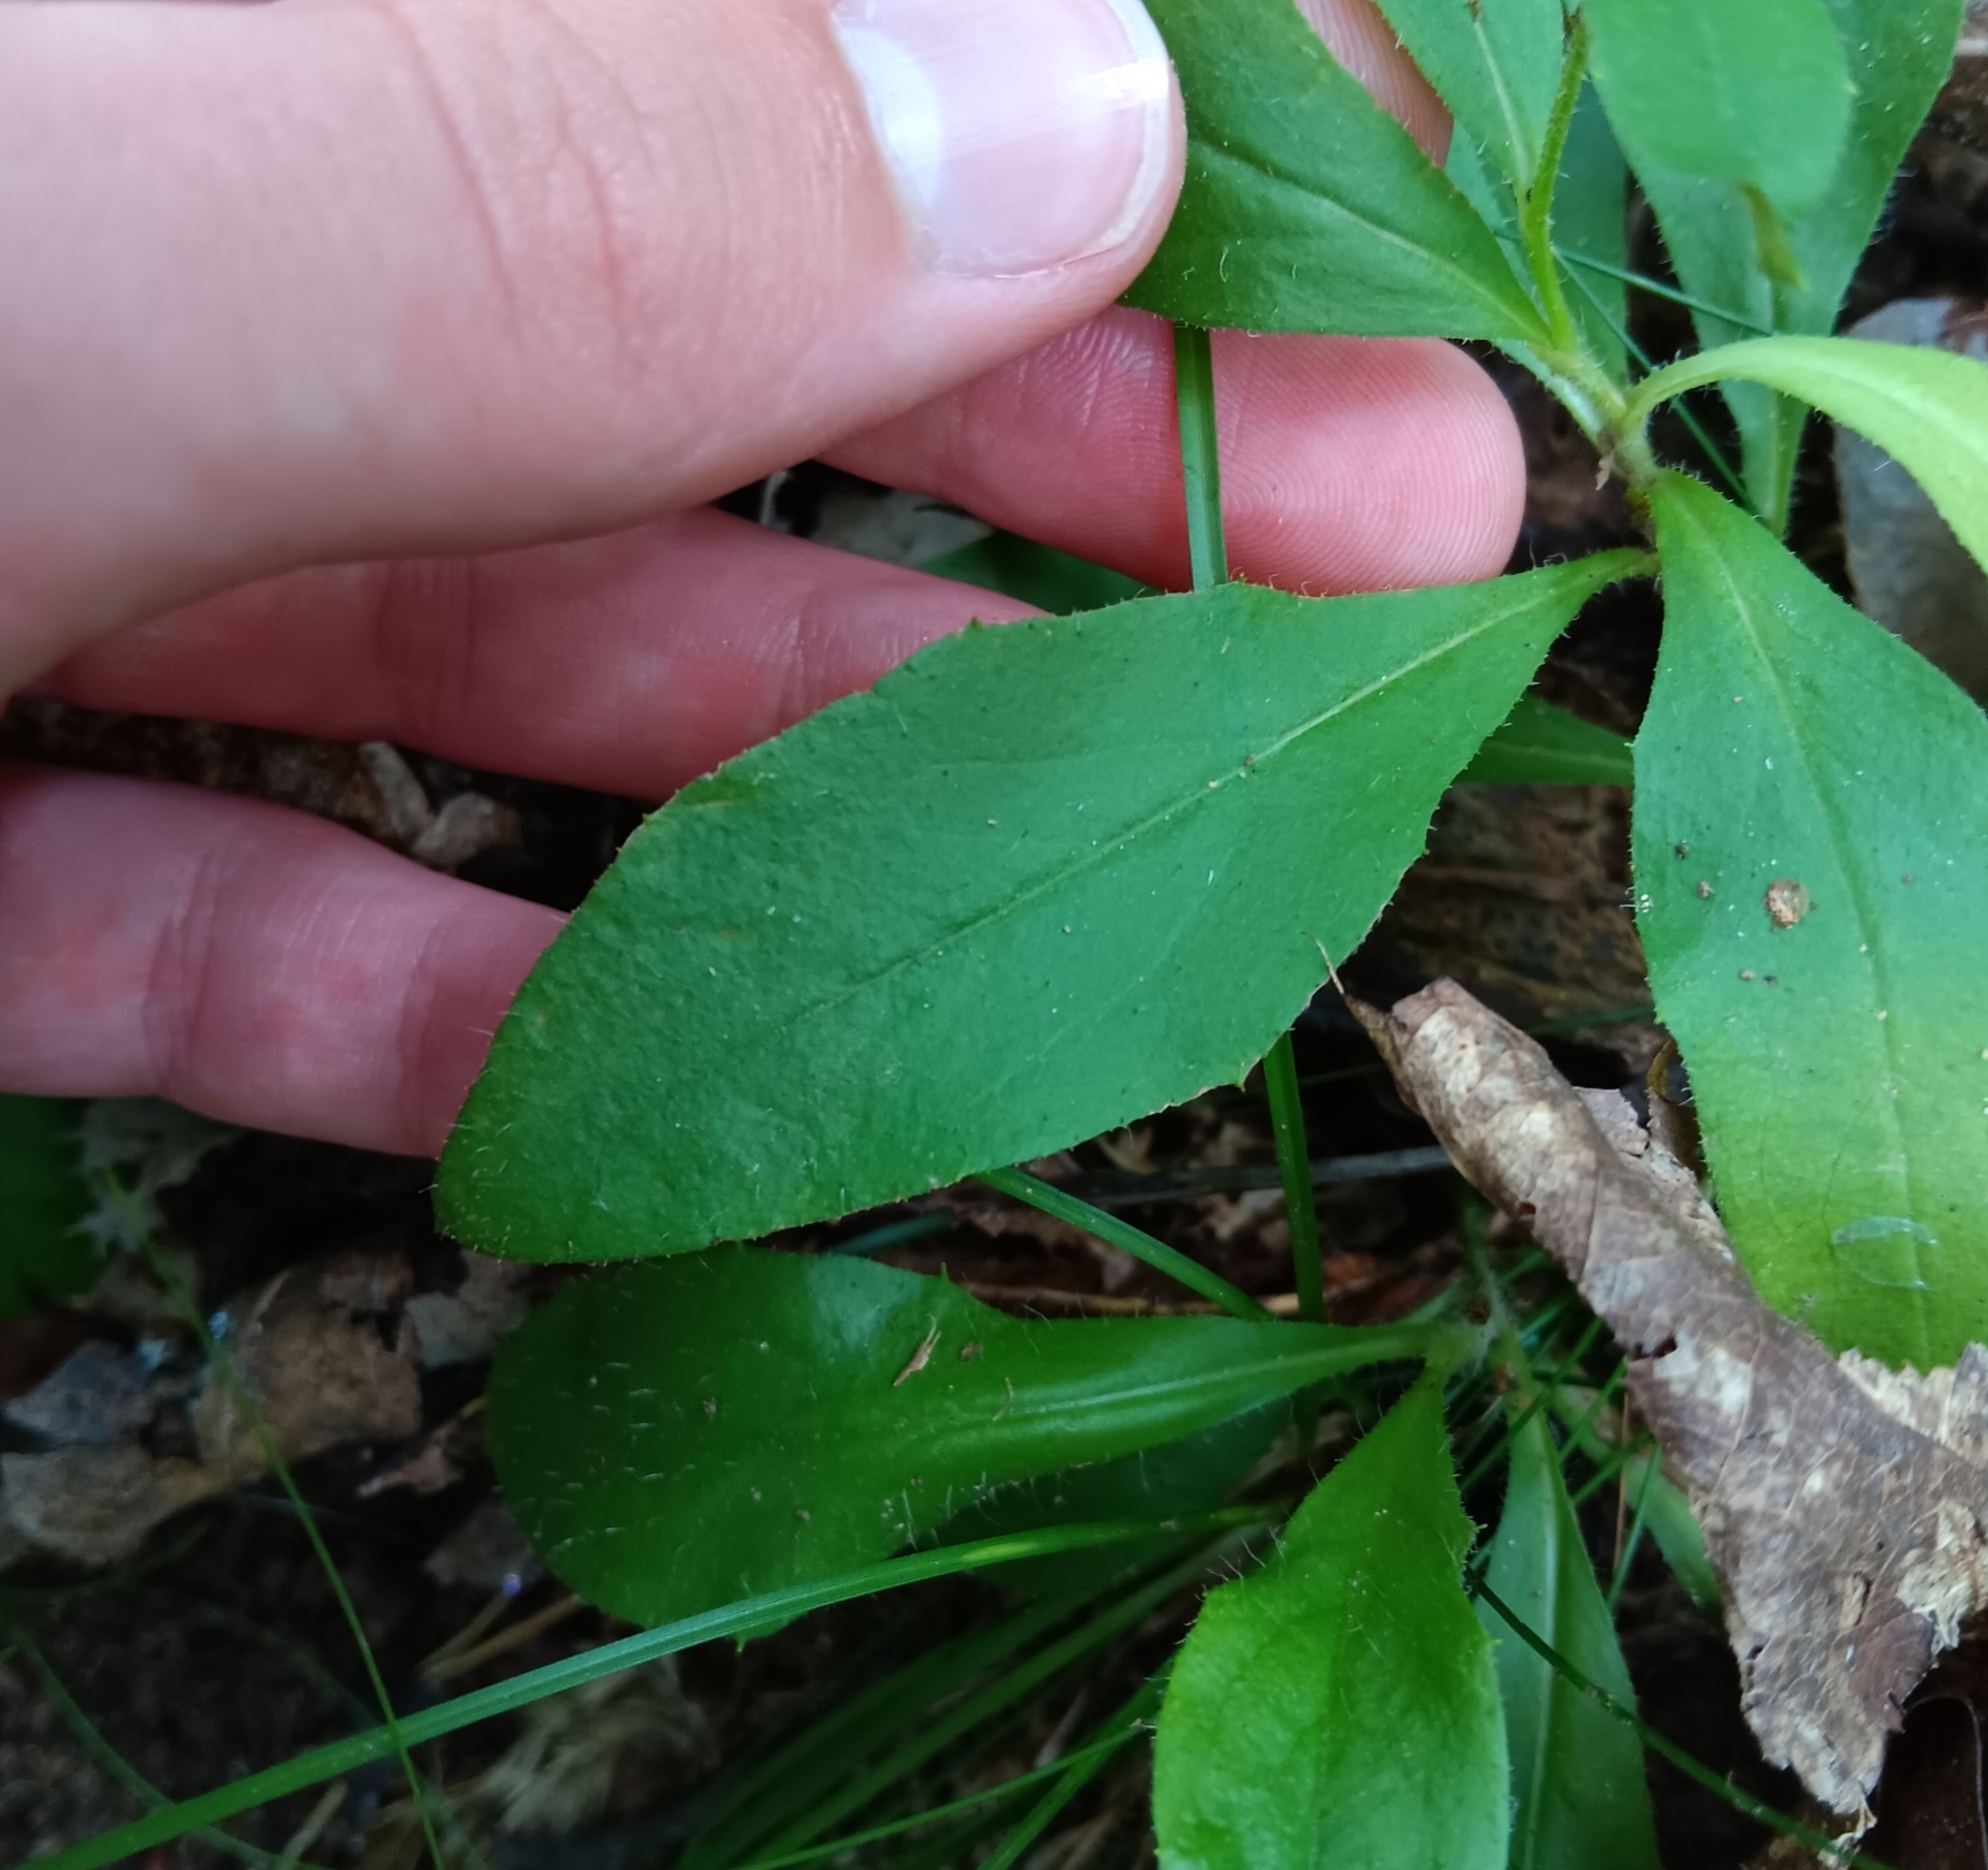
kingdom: Plantae
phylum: Tracheophyta
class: Magnoliopsida
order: Asterales
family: Asteraceae
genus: Hieracium
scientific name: Hieracium lachenalii
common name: Common hawkweed
